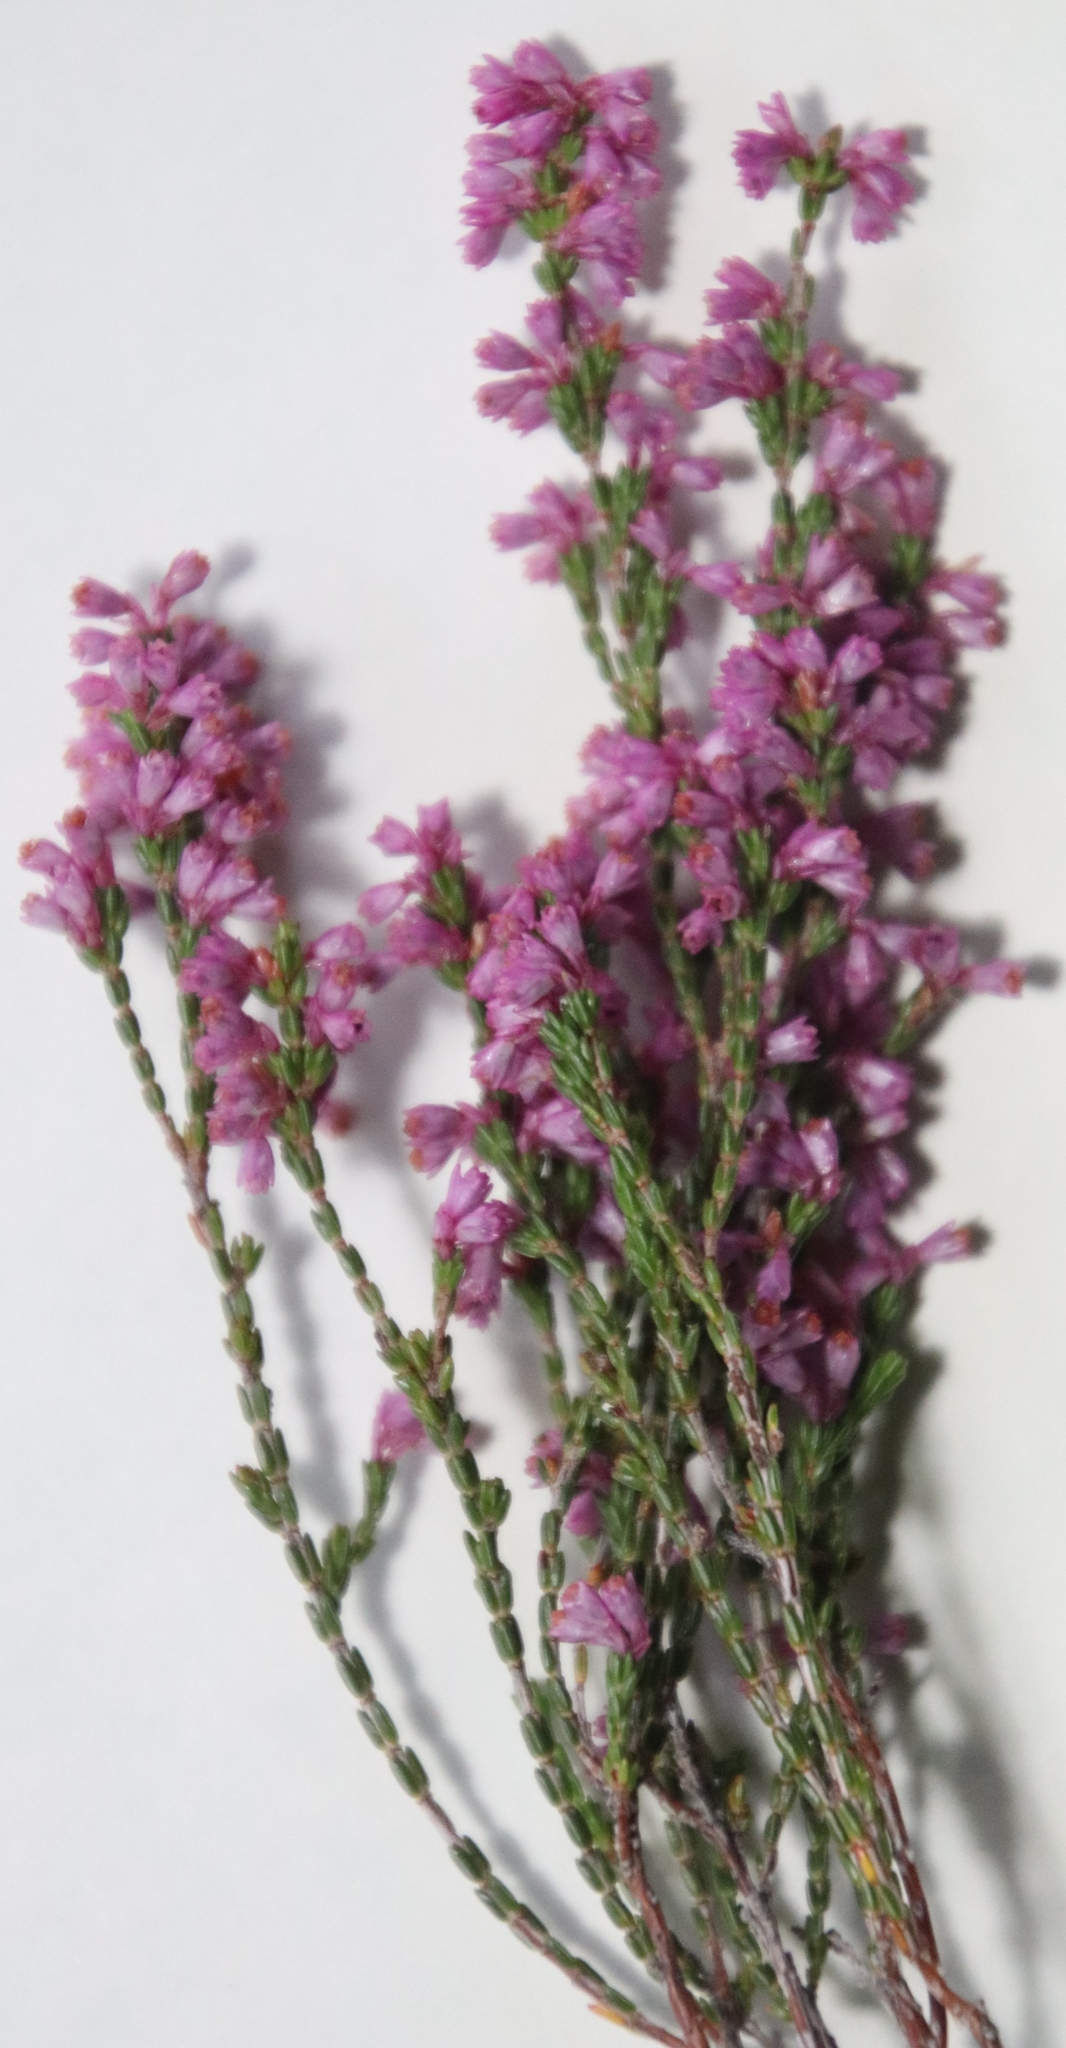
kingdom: Plantae
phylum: Tracheophyta
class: Magnoliopsida
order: Ericales
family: Ericaceae
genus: Erica
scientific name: Erica gnaphaloides
